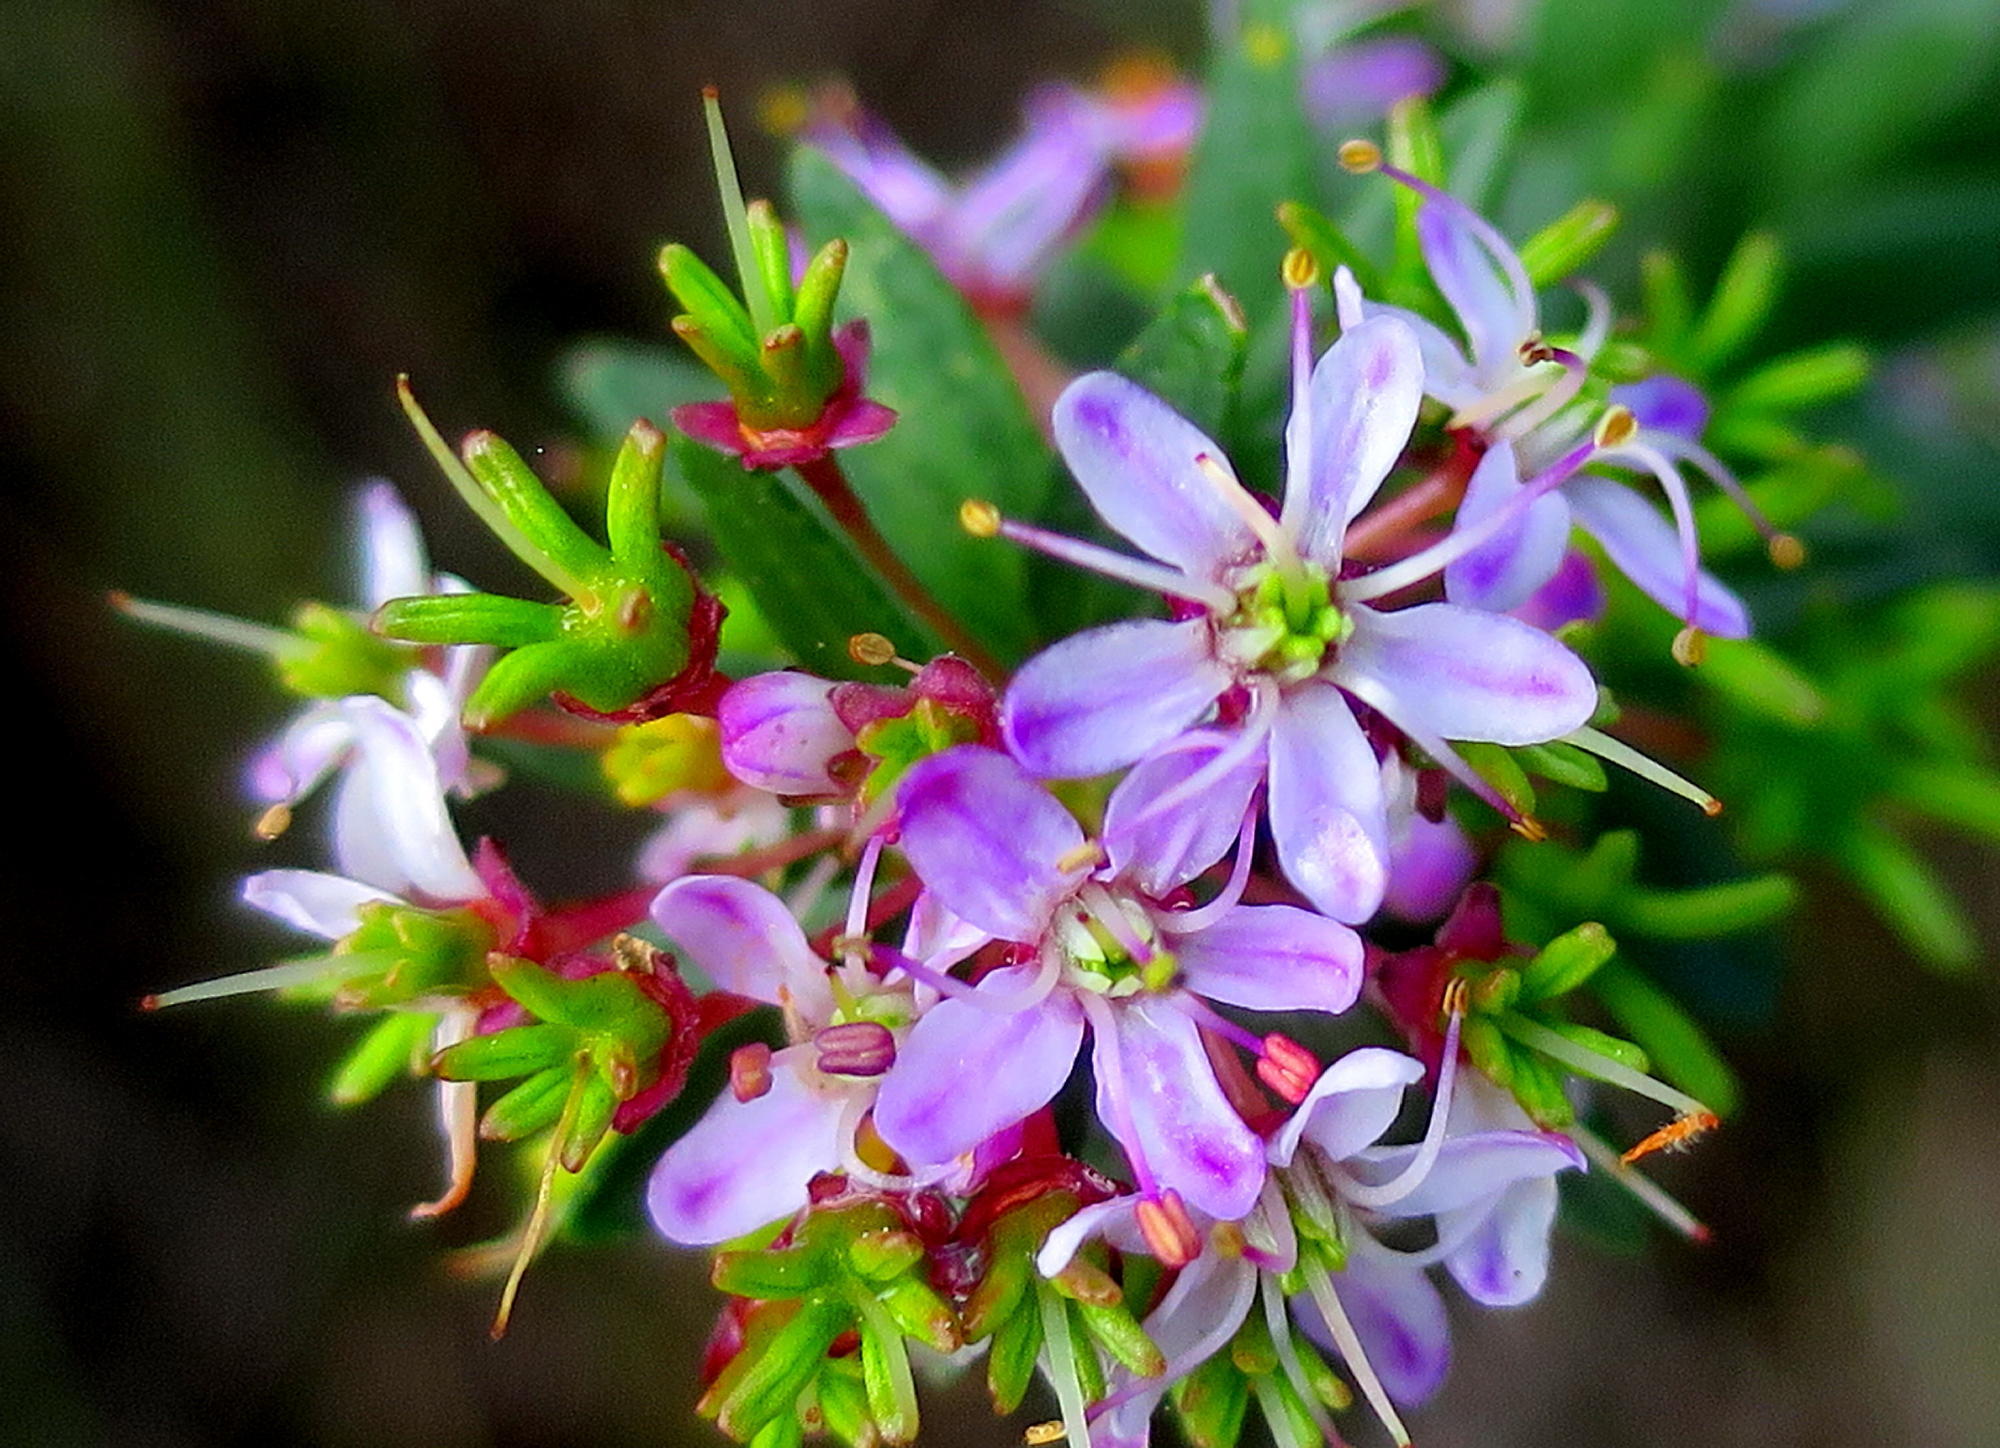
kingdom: Plantae
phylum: Tracheophyta
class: Magnoliopsida
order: Sapindales
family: Rutaceae
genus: Agathosma
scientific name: Agathosma ovata
